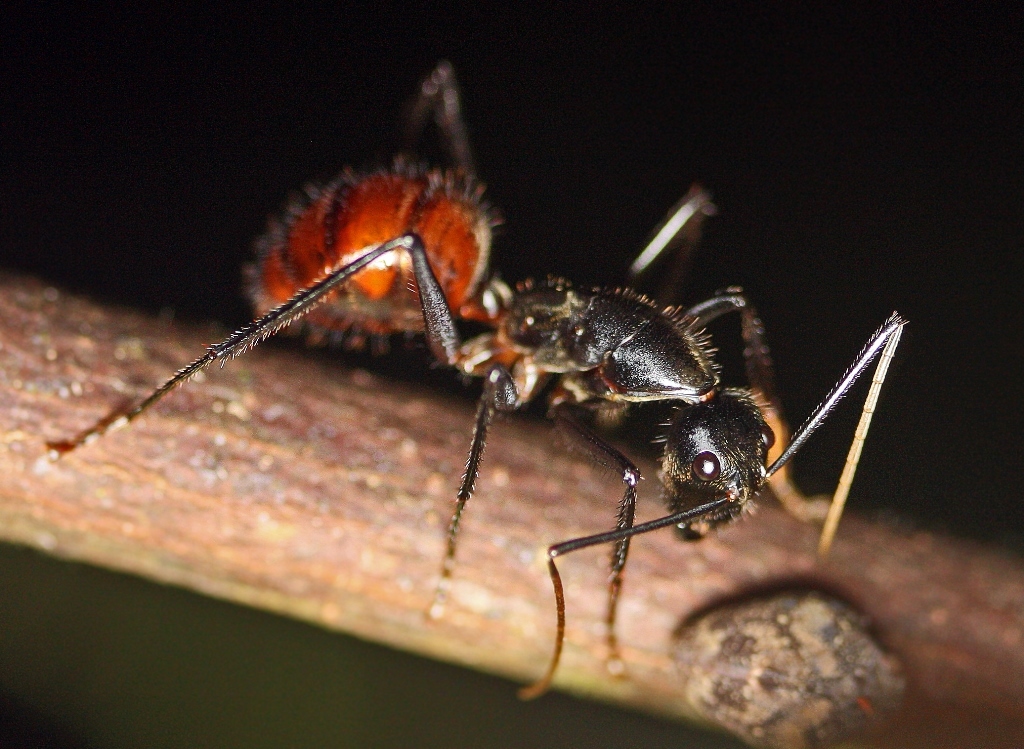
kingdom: Animalia
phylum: Arthropoda
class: Insecta
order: Hymenoptera
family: Formicidae
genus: Dinomyrmex
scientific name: Dinomyrmex
